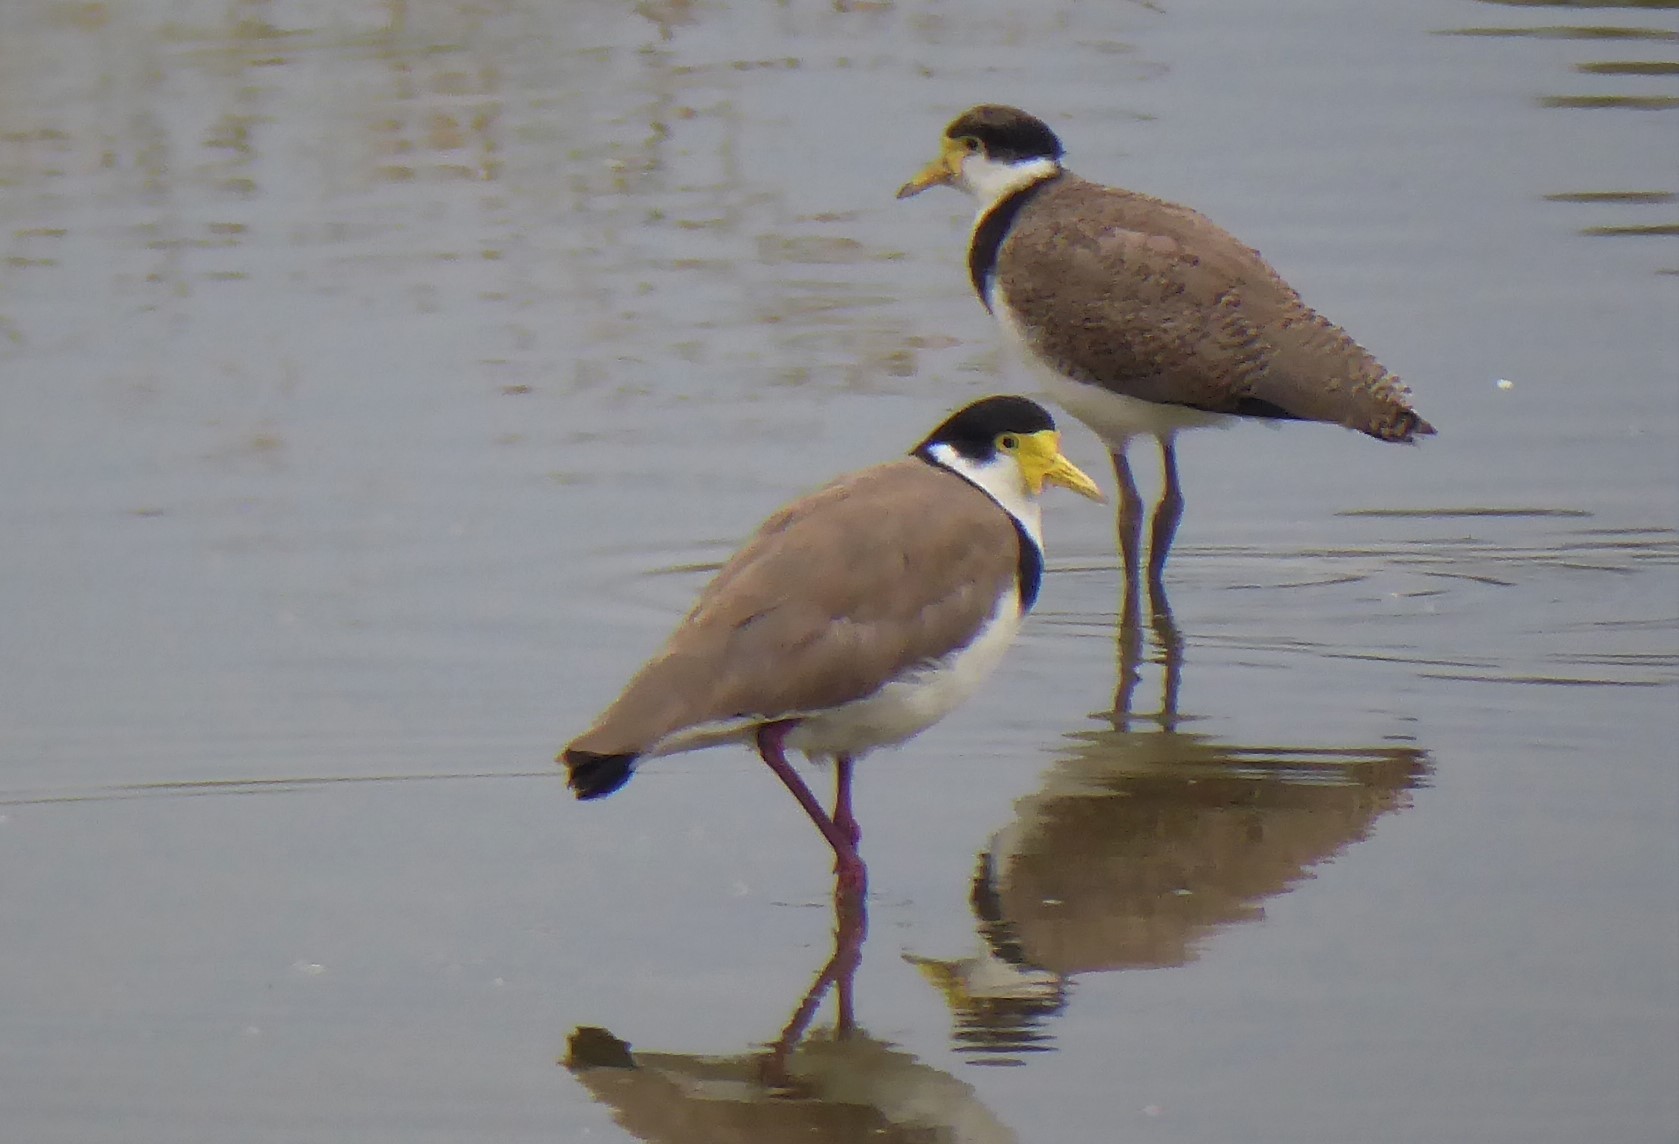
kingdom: Animalia
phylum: Chordata
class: Aves
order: Charadriiformes
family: Charadriidae
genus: Vanellus
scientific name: Vanellus miles
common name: Masked lapwing
